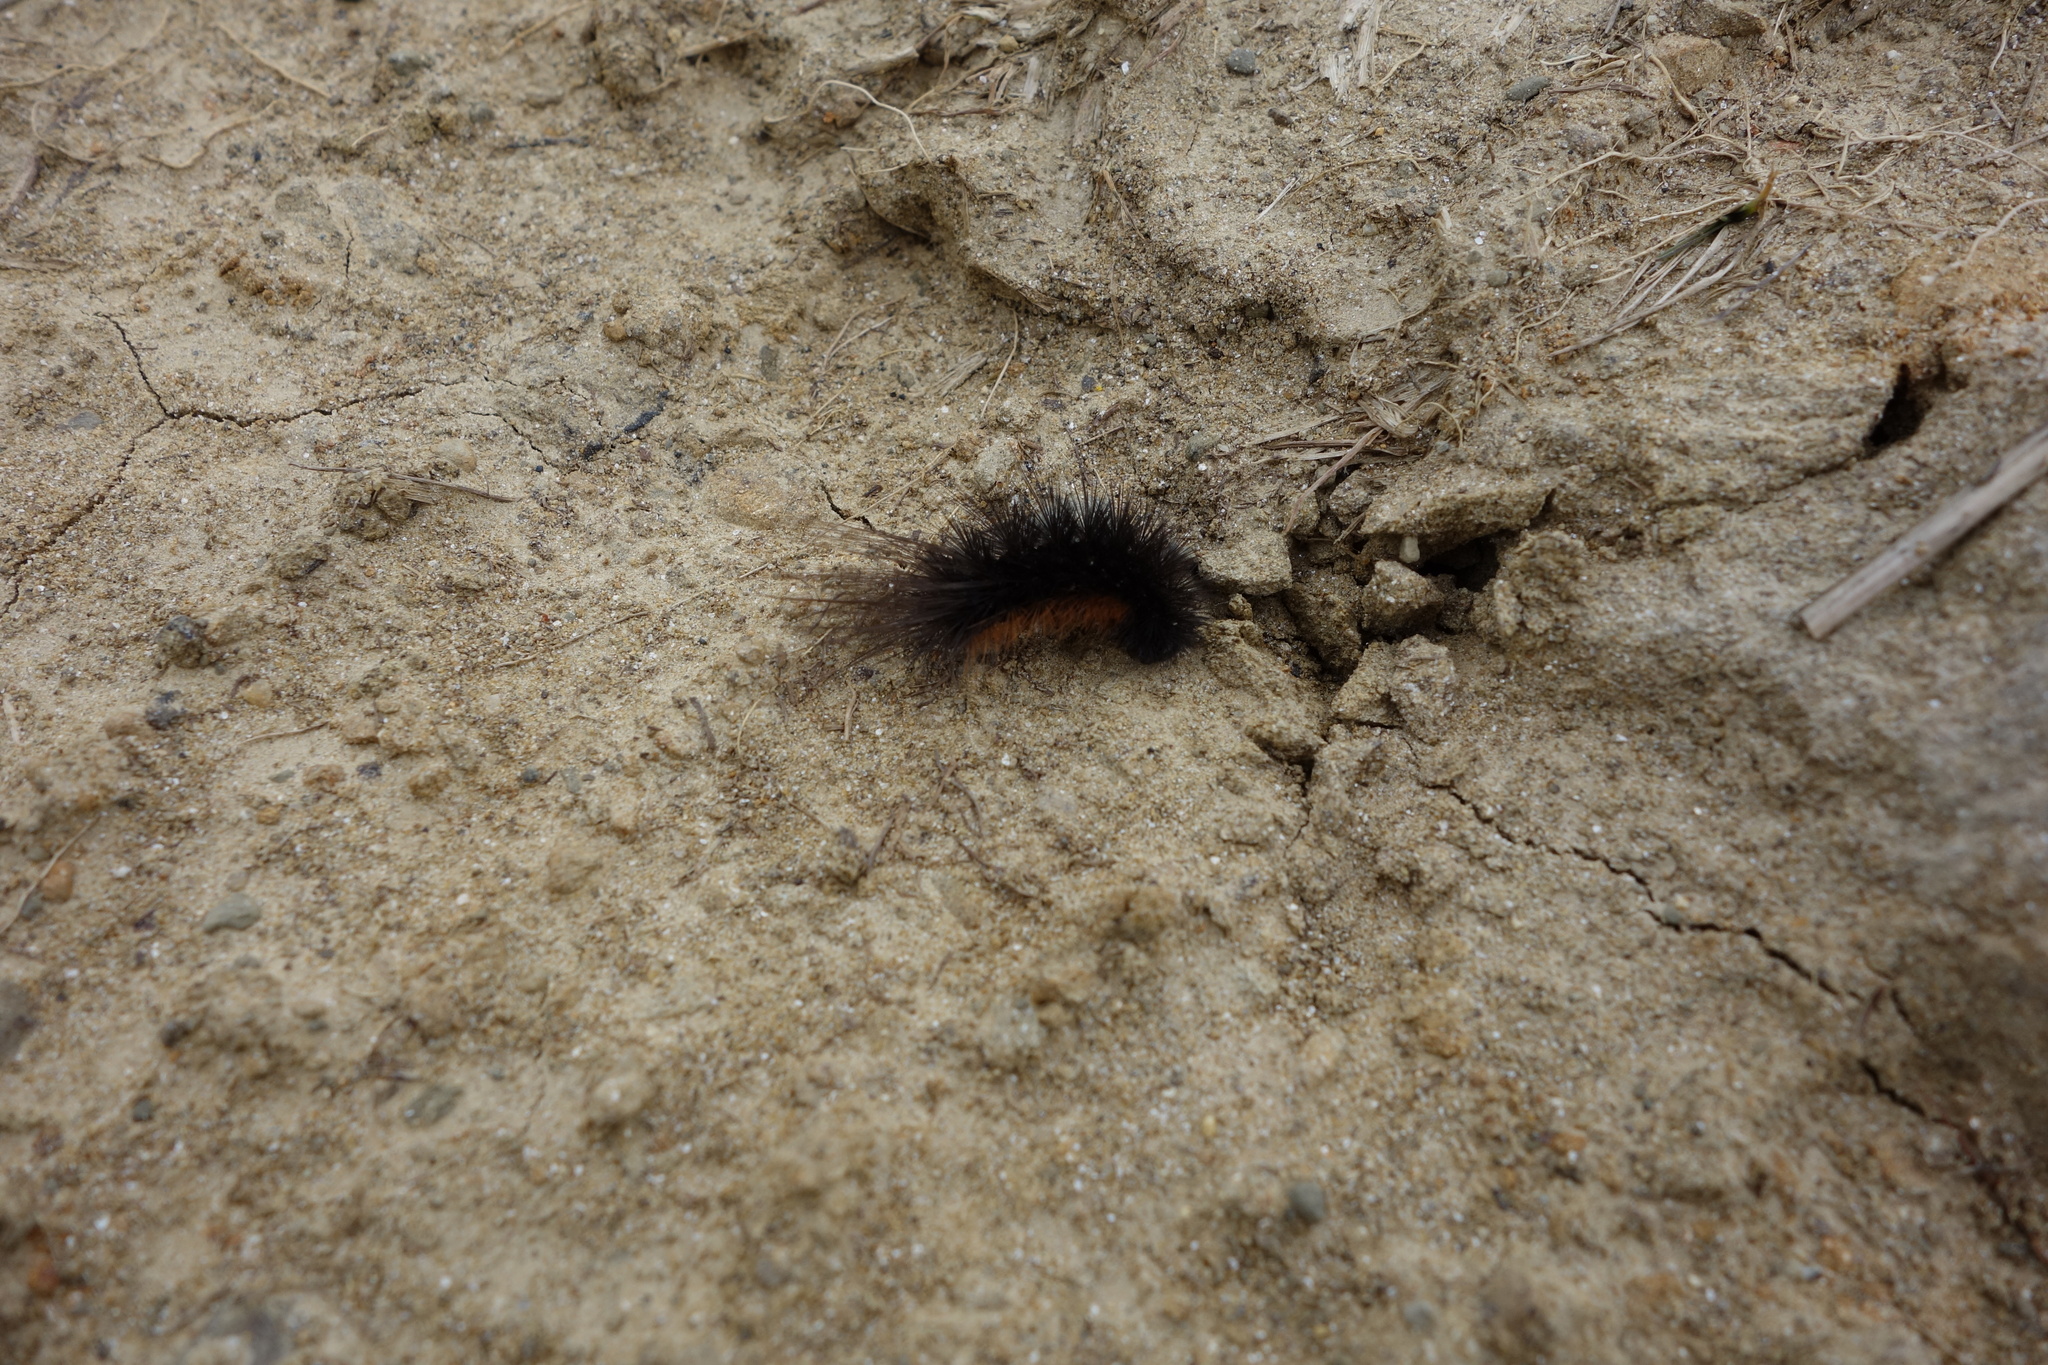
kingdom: Animalia
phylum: Arthropoda
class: Insecta
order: Lepidoptera
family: Erebidae
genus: Arctia
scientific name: Arctia caja
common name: Garden tiger
